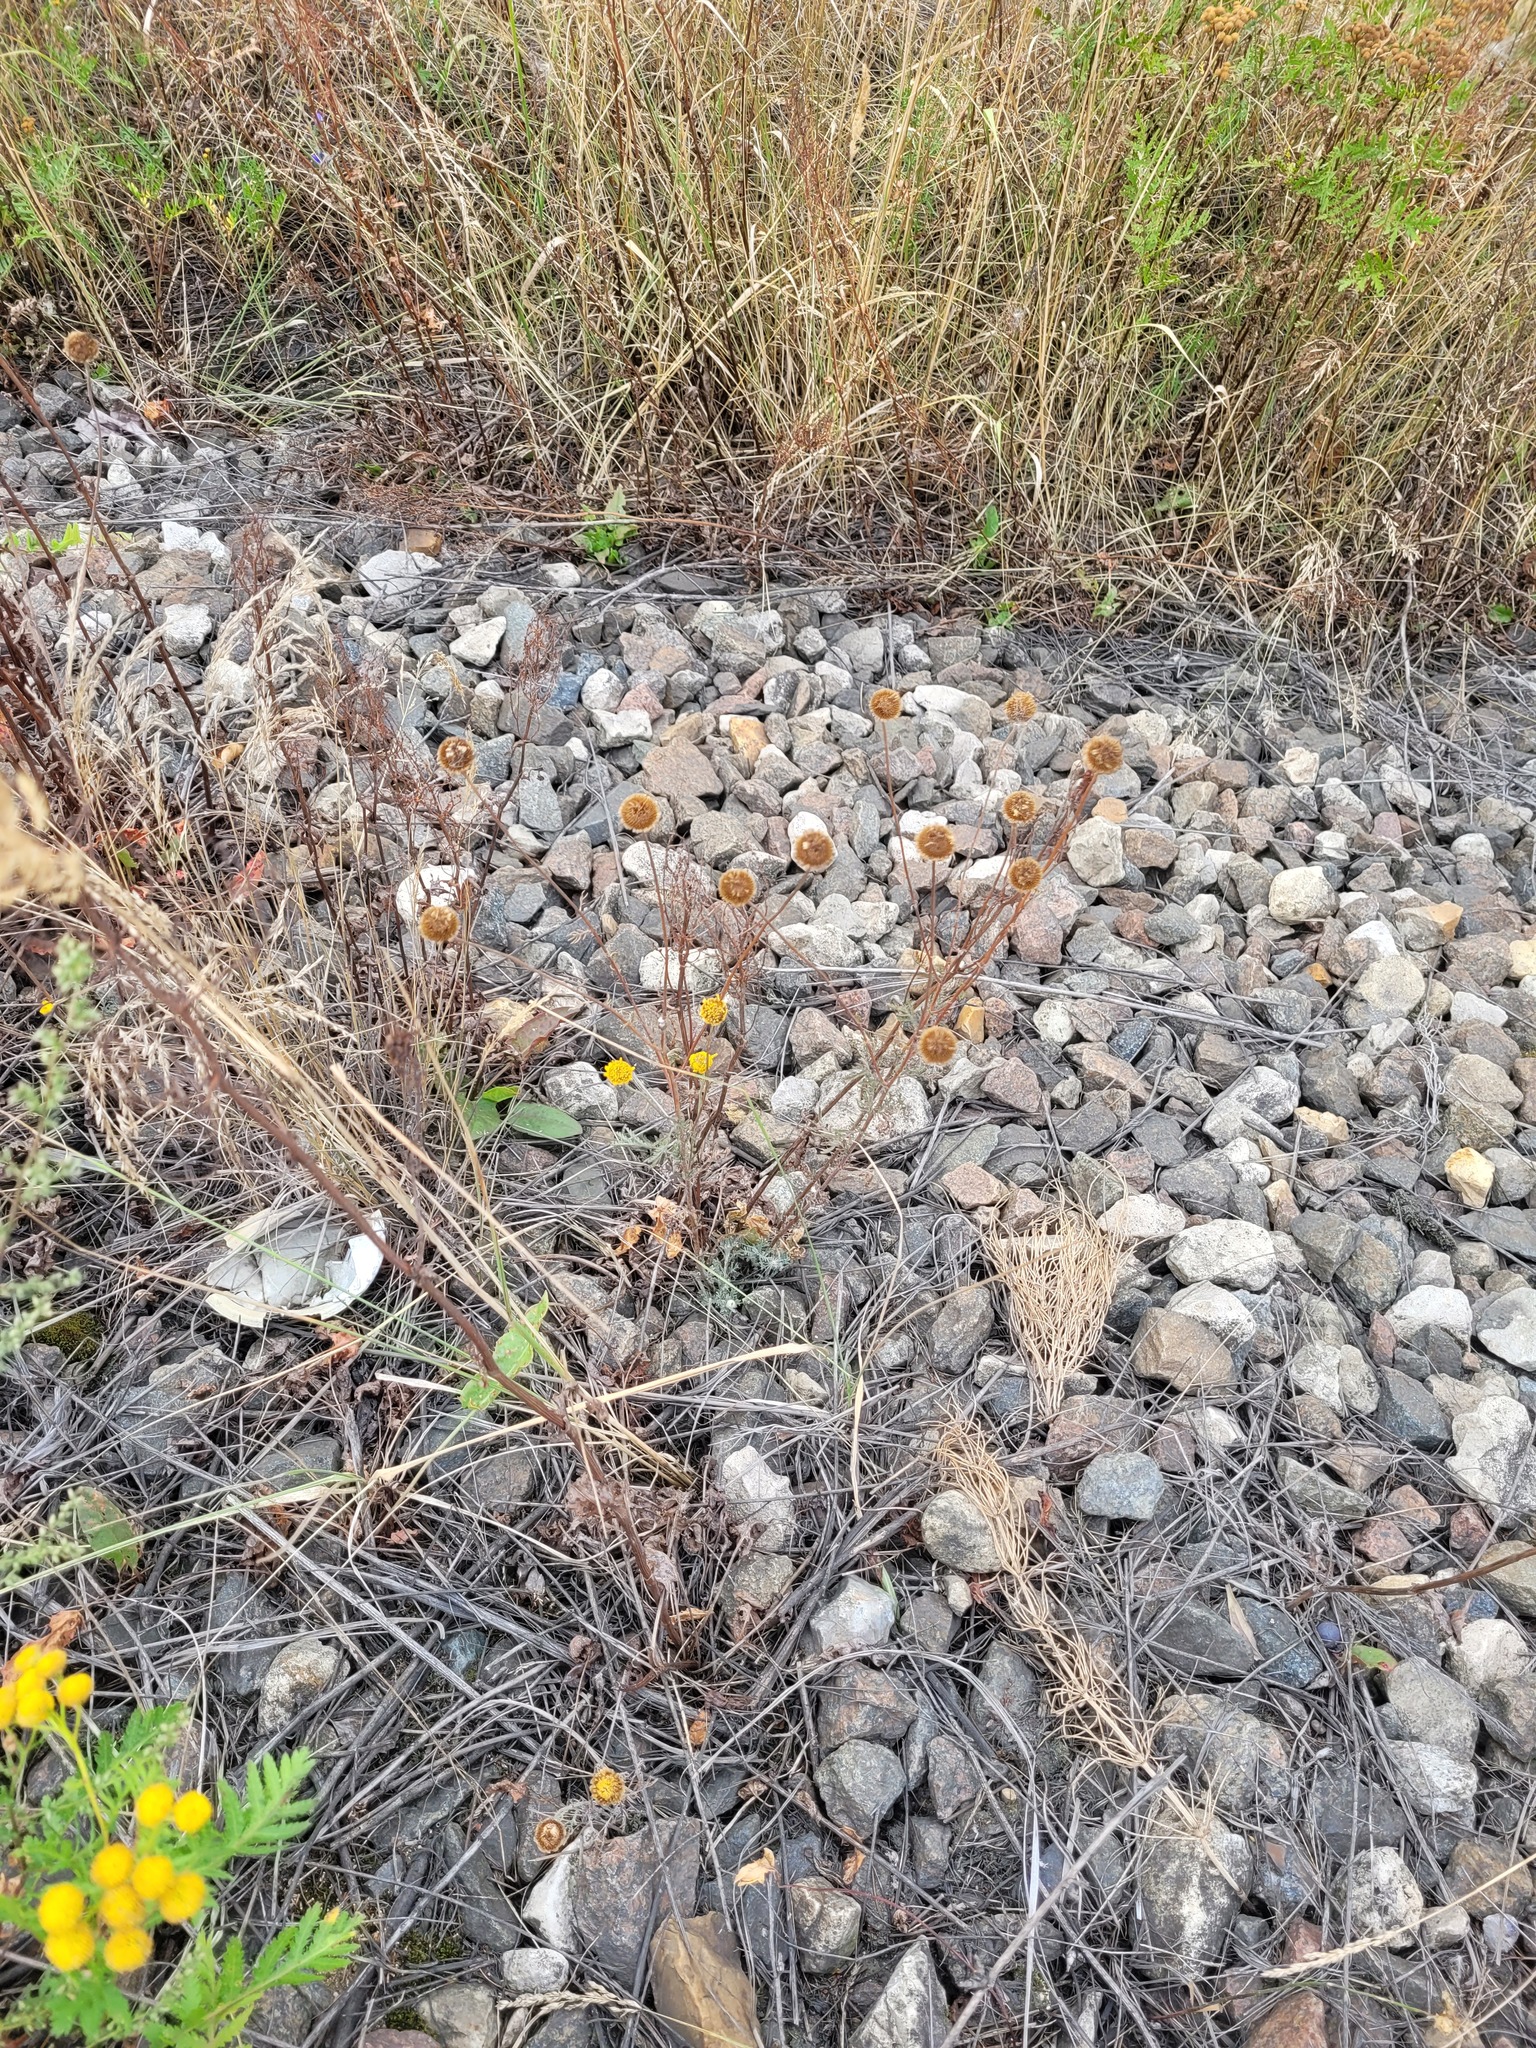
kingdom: Plantae
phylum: Tracheophyta
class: Magnoliopsida
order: Asterales
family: Asteraceae
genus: Cota
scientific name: Cota tinctoria
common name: Golden chamomile
